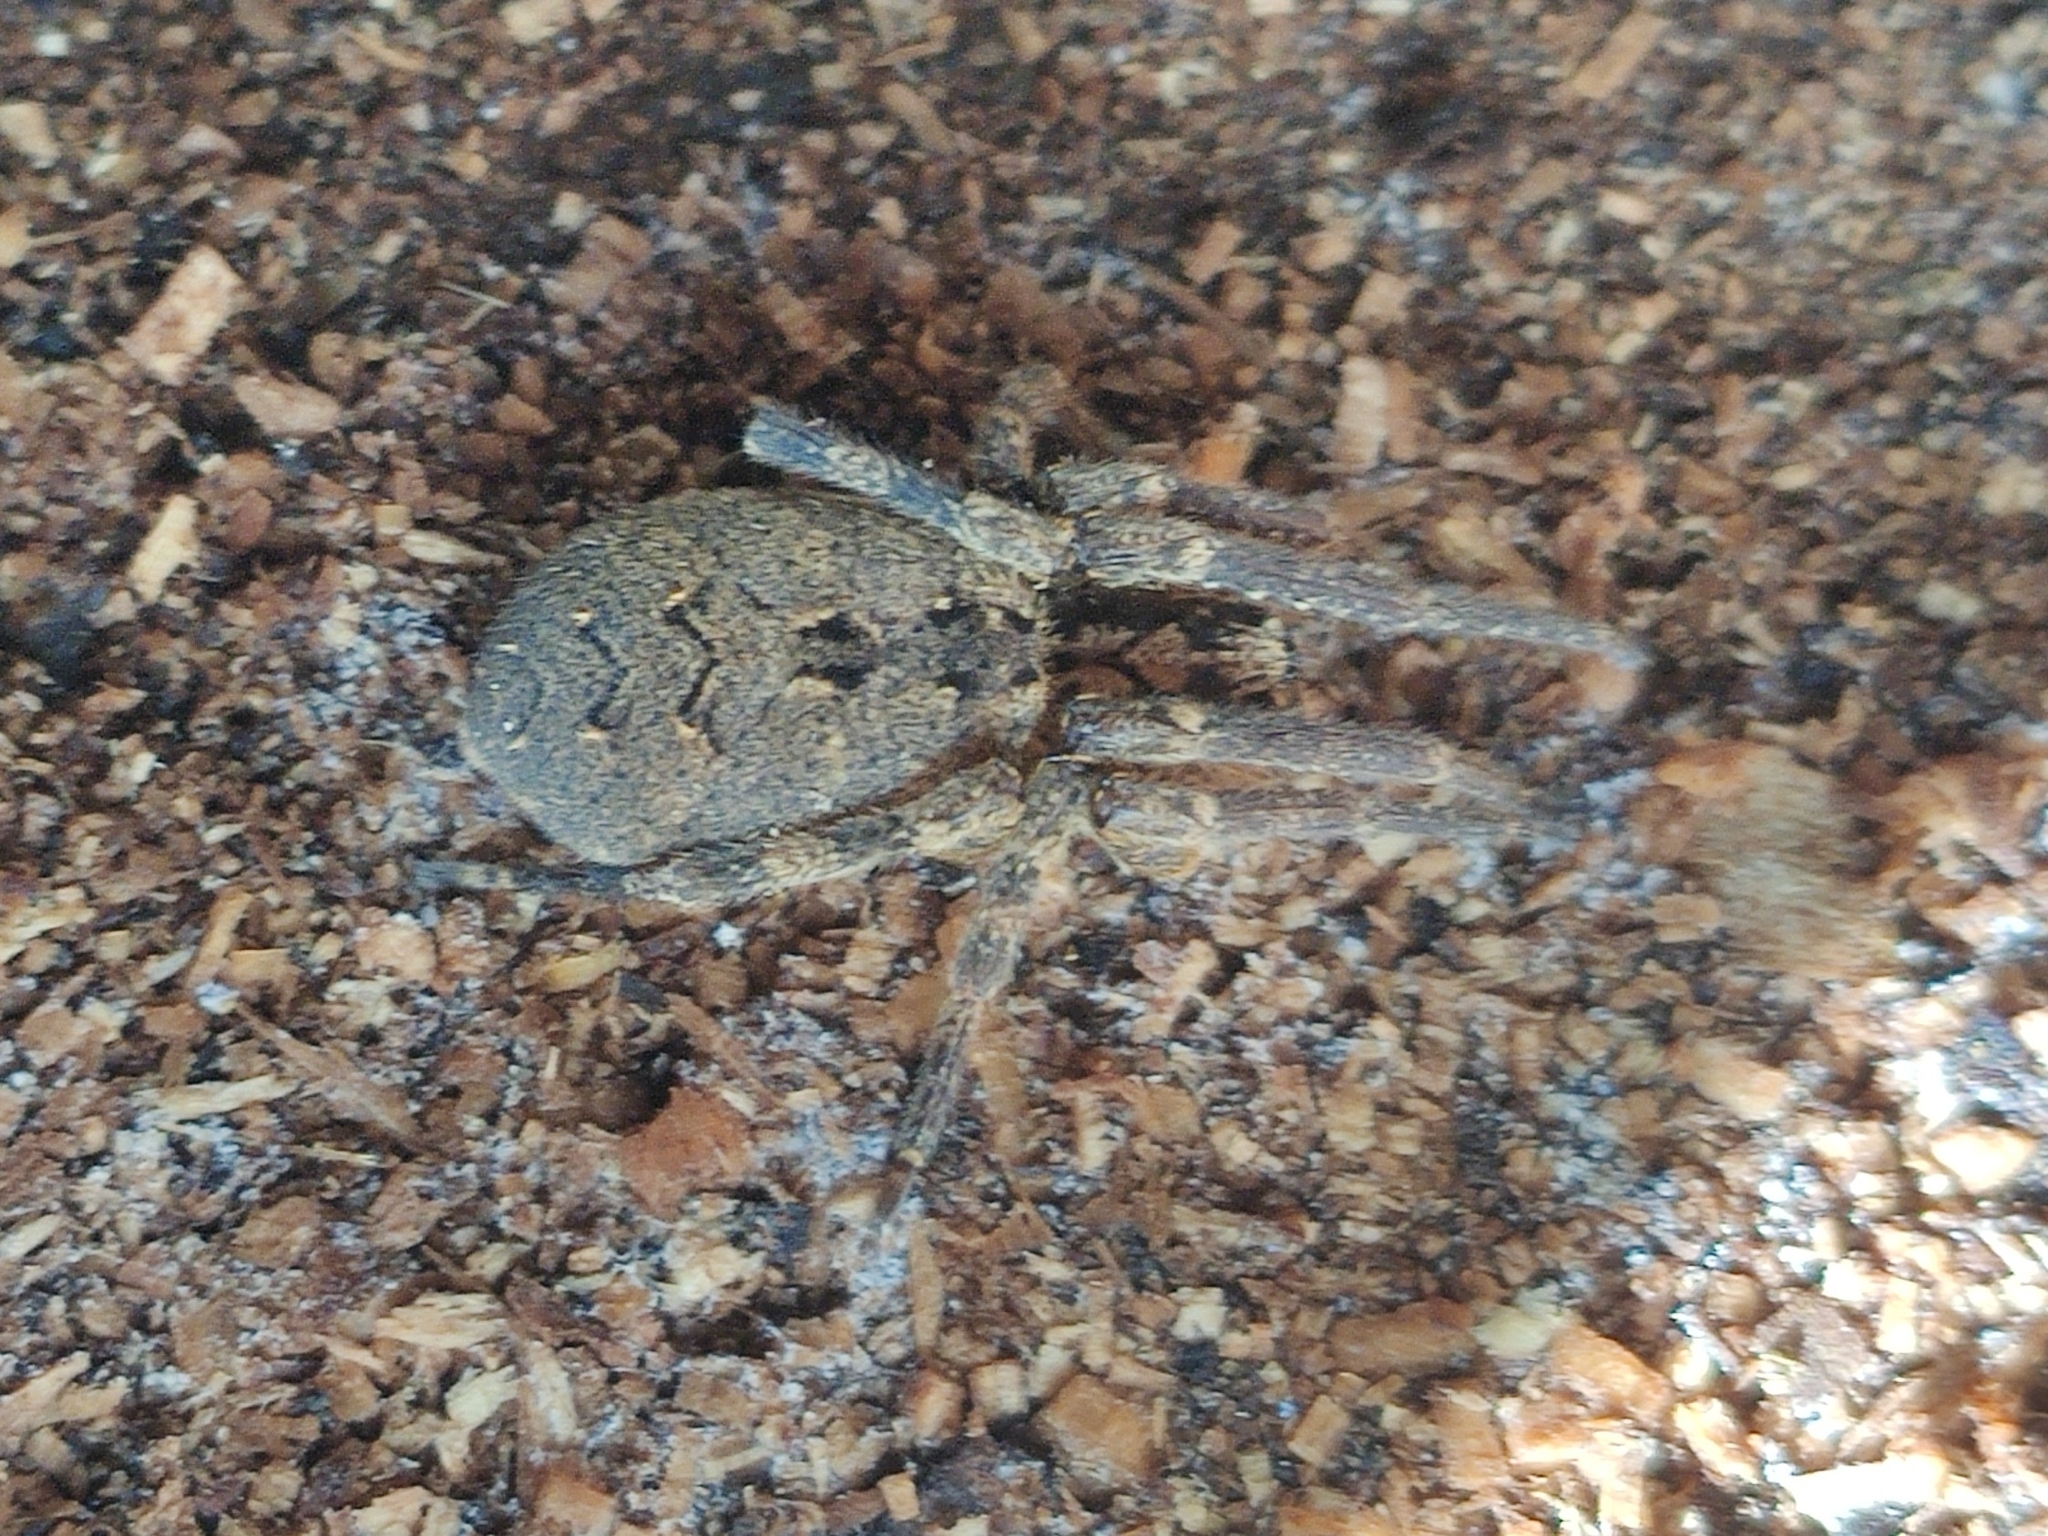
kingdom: Animalia
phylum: Arthropoda
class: Arachnida
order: Araneae
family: Zoropsidae
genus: Zoropsis
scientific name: Zoropsis spinimana
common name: Zoropsid spider
